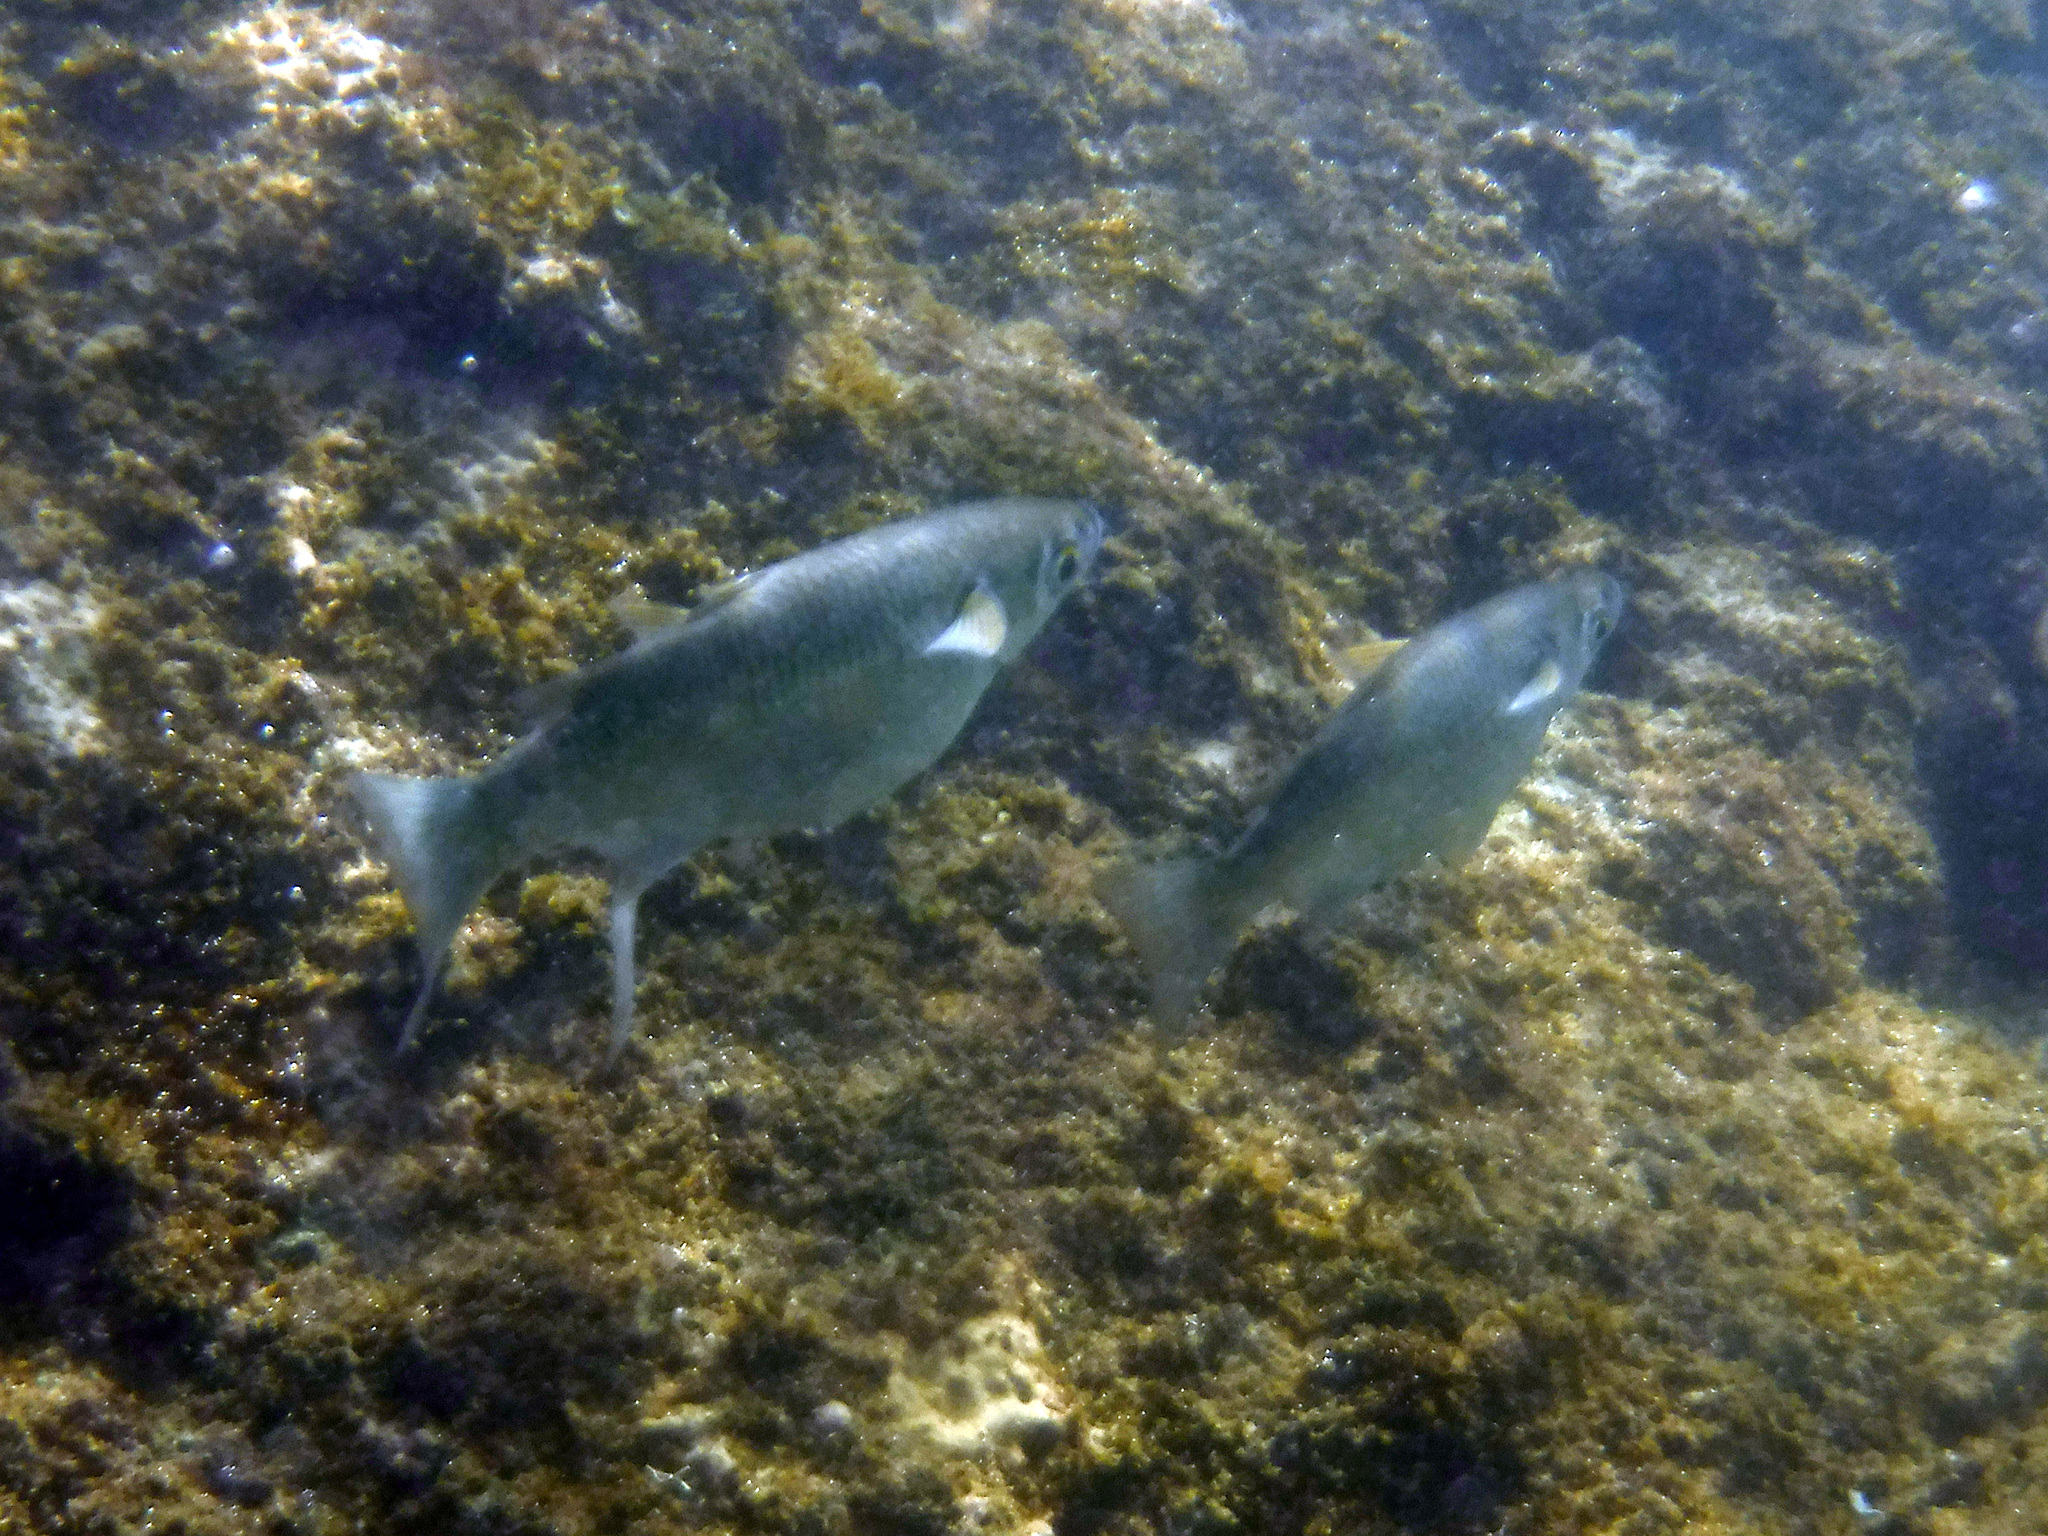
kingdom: Animalia
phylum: Chordata
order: Mugiliformes
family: Mugilidae
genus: Chaenomugil
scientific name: Chaenomugil proboscideus
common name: Snouted mullet
